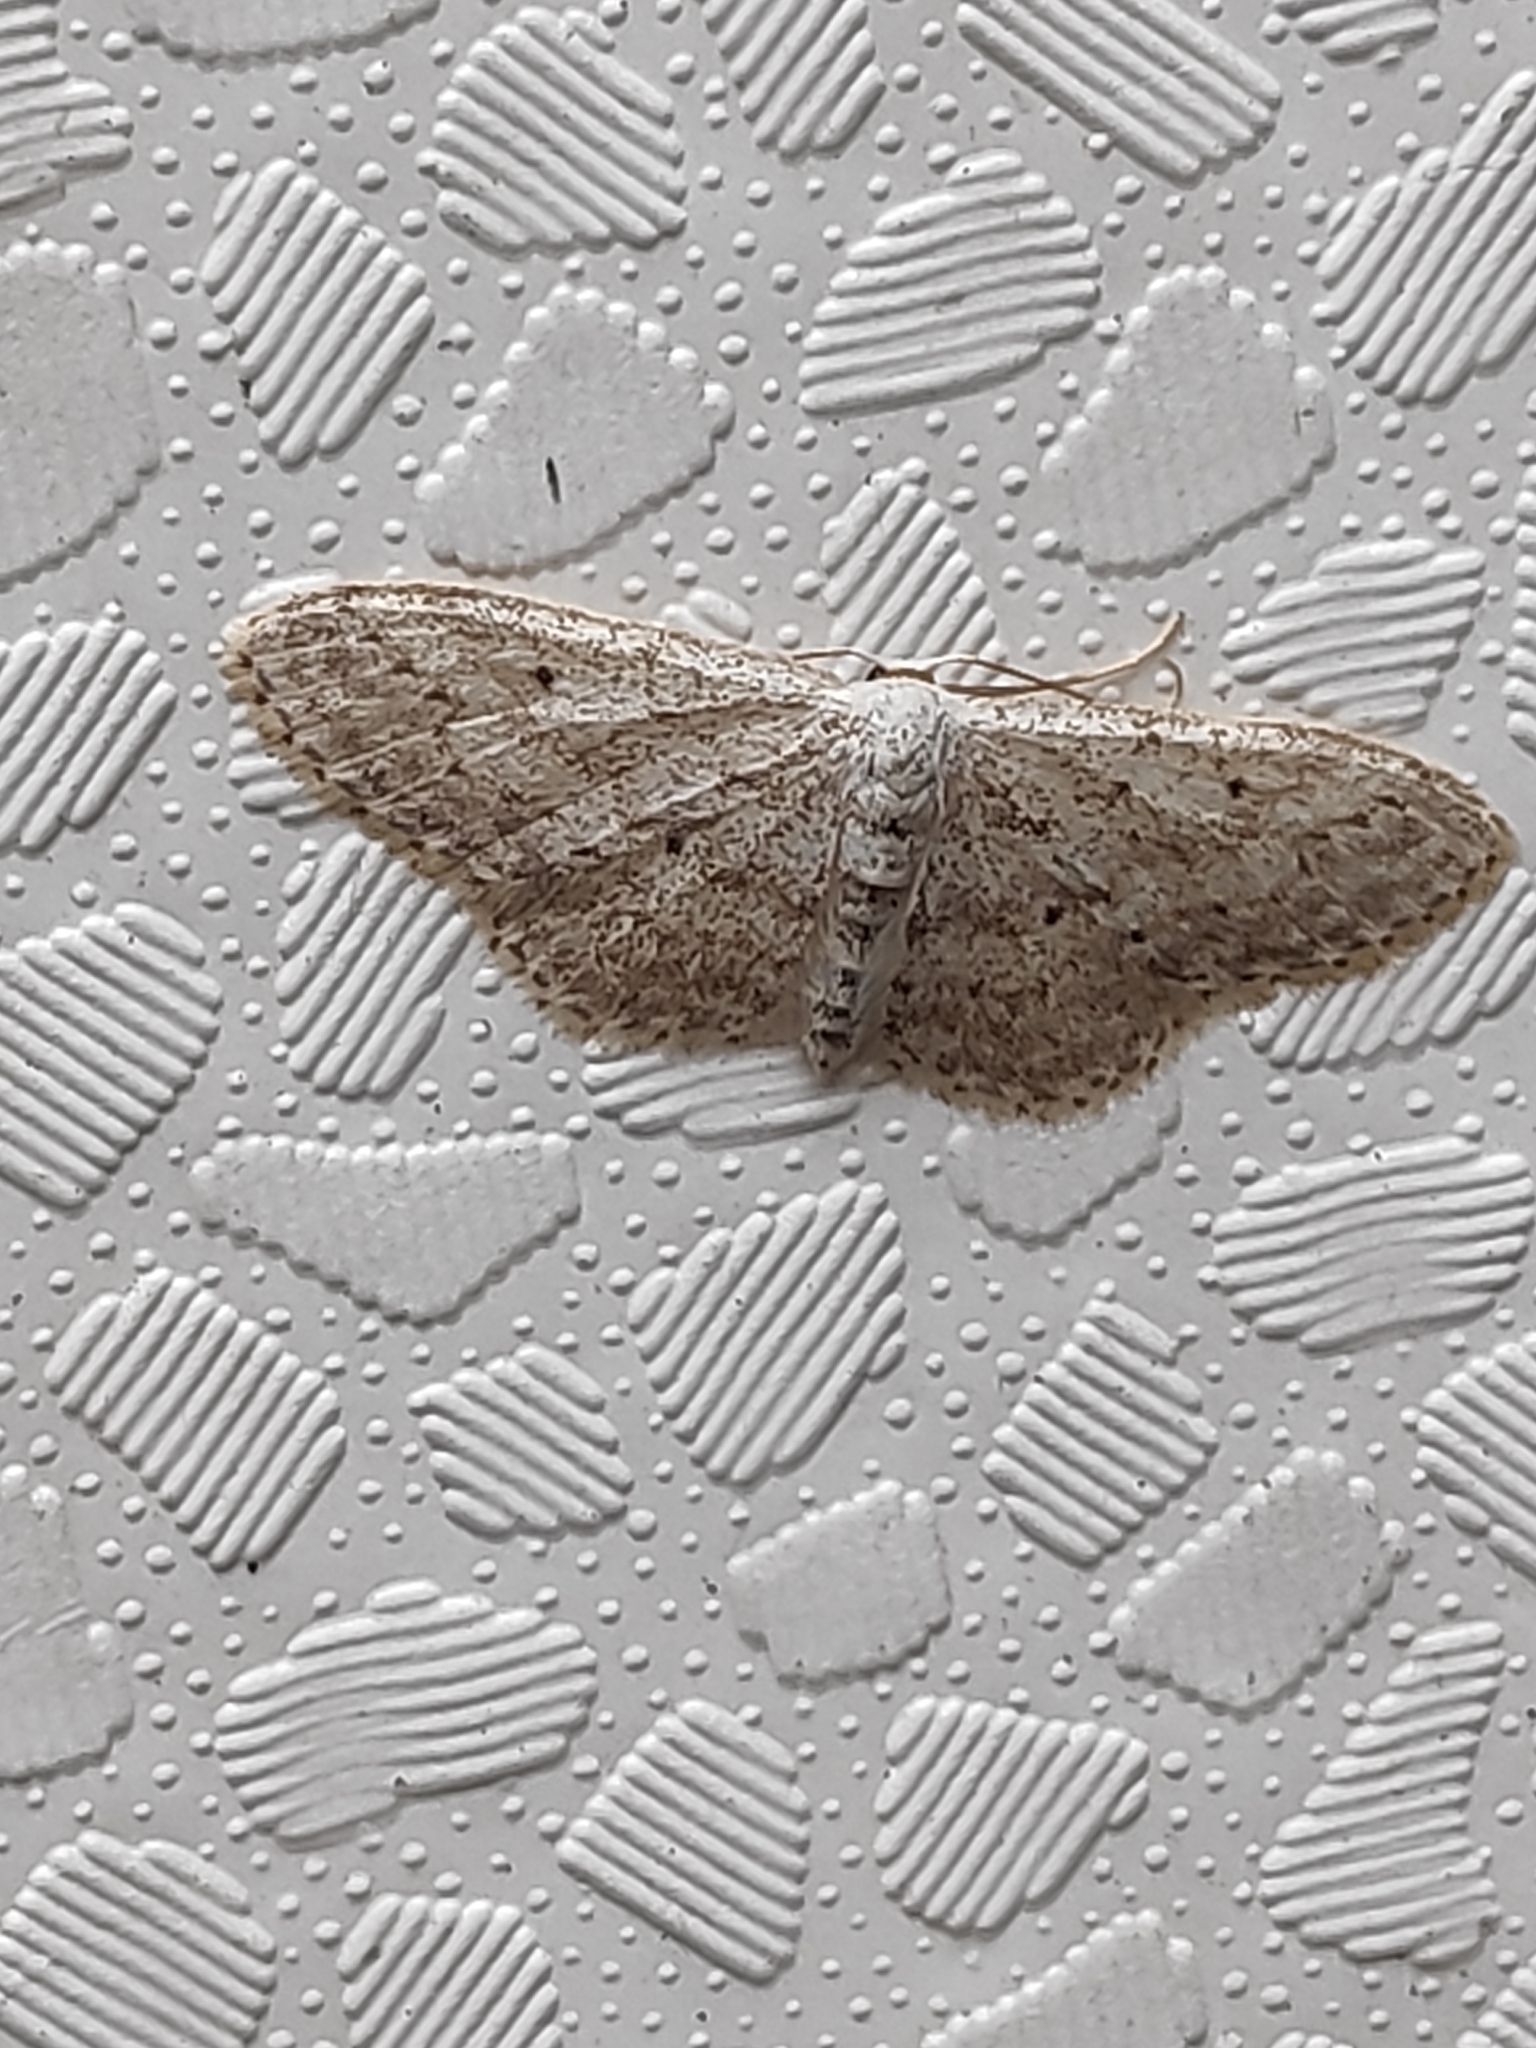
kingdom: Animalia
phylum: Arthropoda
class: Insecta
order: Lepidoptera
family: Geometridae
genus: Idaea
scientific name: Idaea seriata
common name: Small dusty wave
